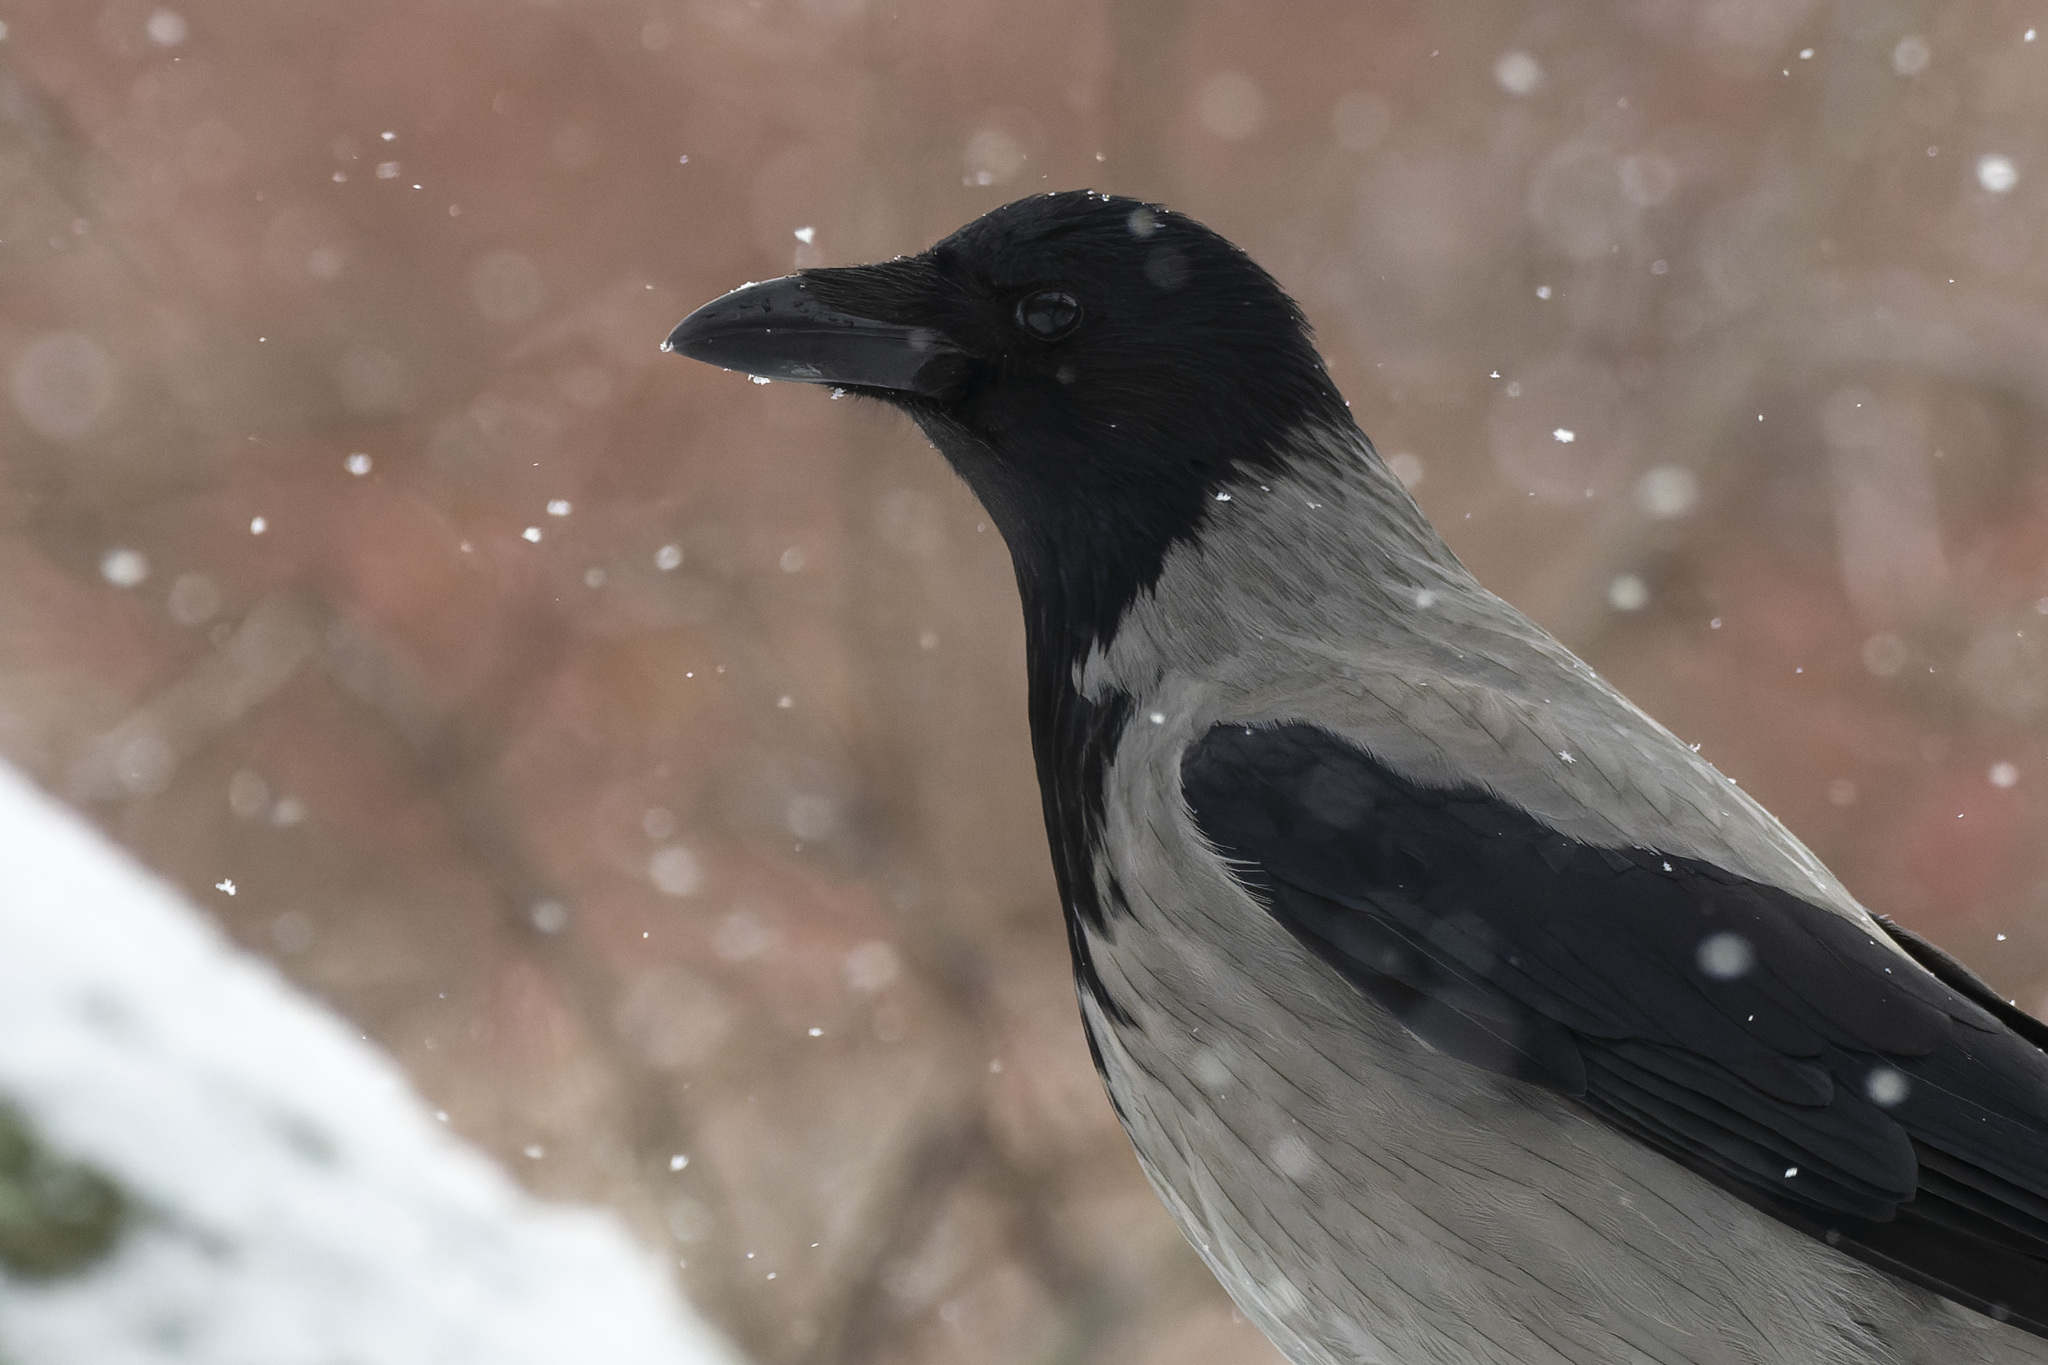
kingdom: Animalia
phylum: Chordata
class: Aves
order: Passeriformes
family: Corvidae
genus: Corvus
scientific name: Corvus cornix
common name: Hooded crow
